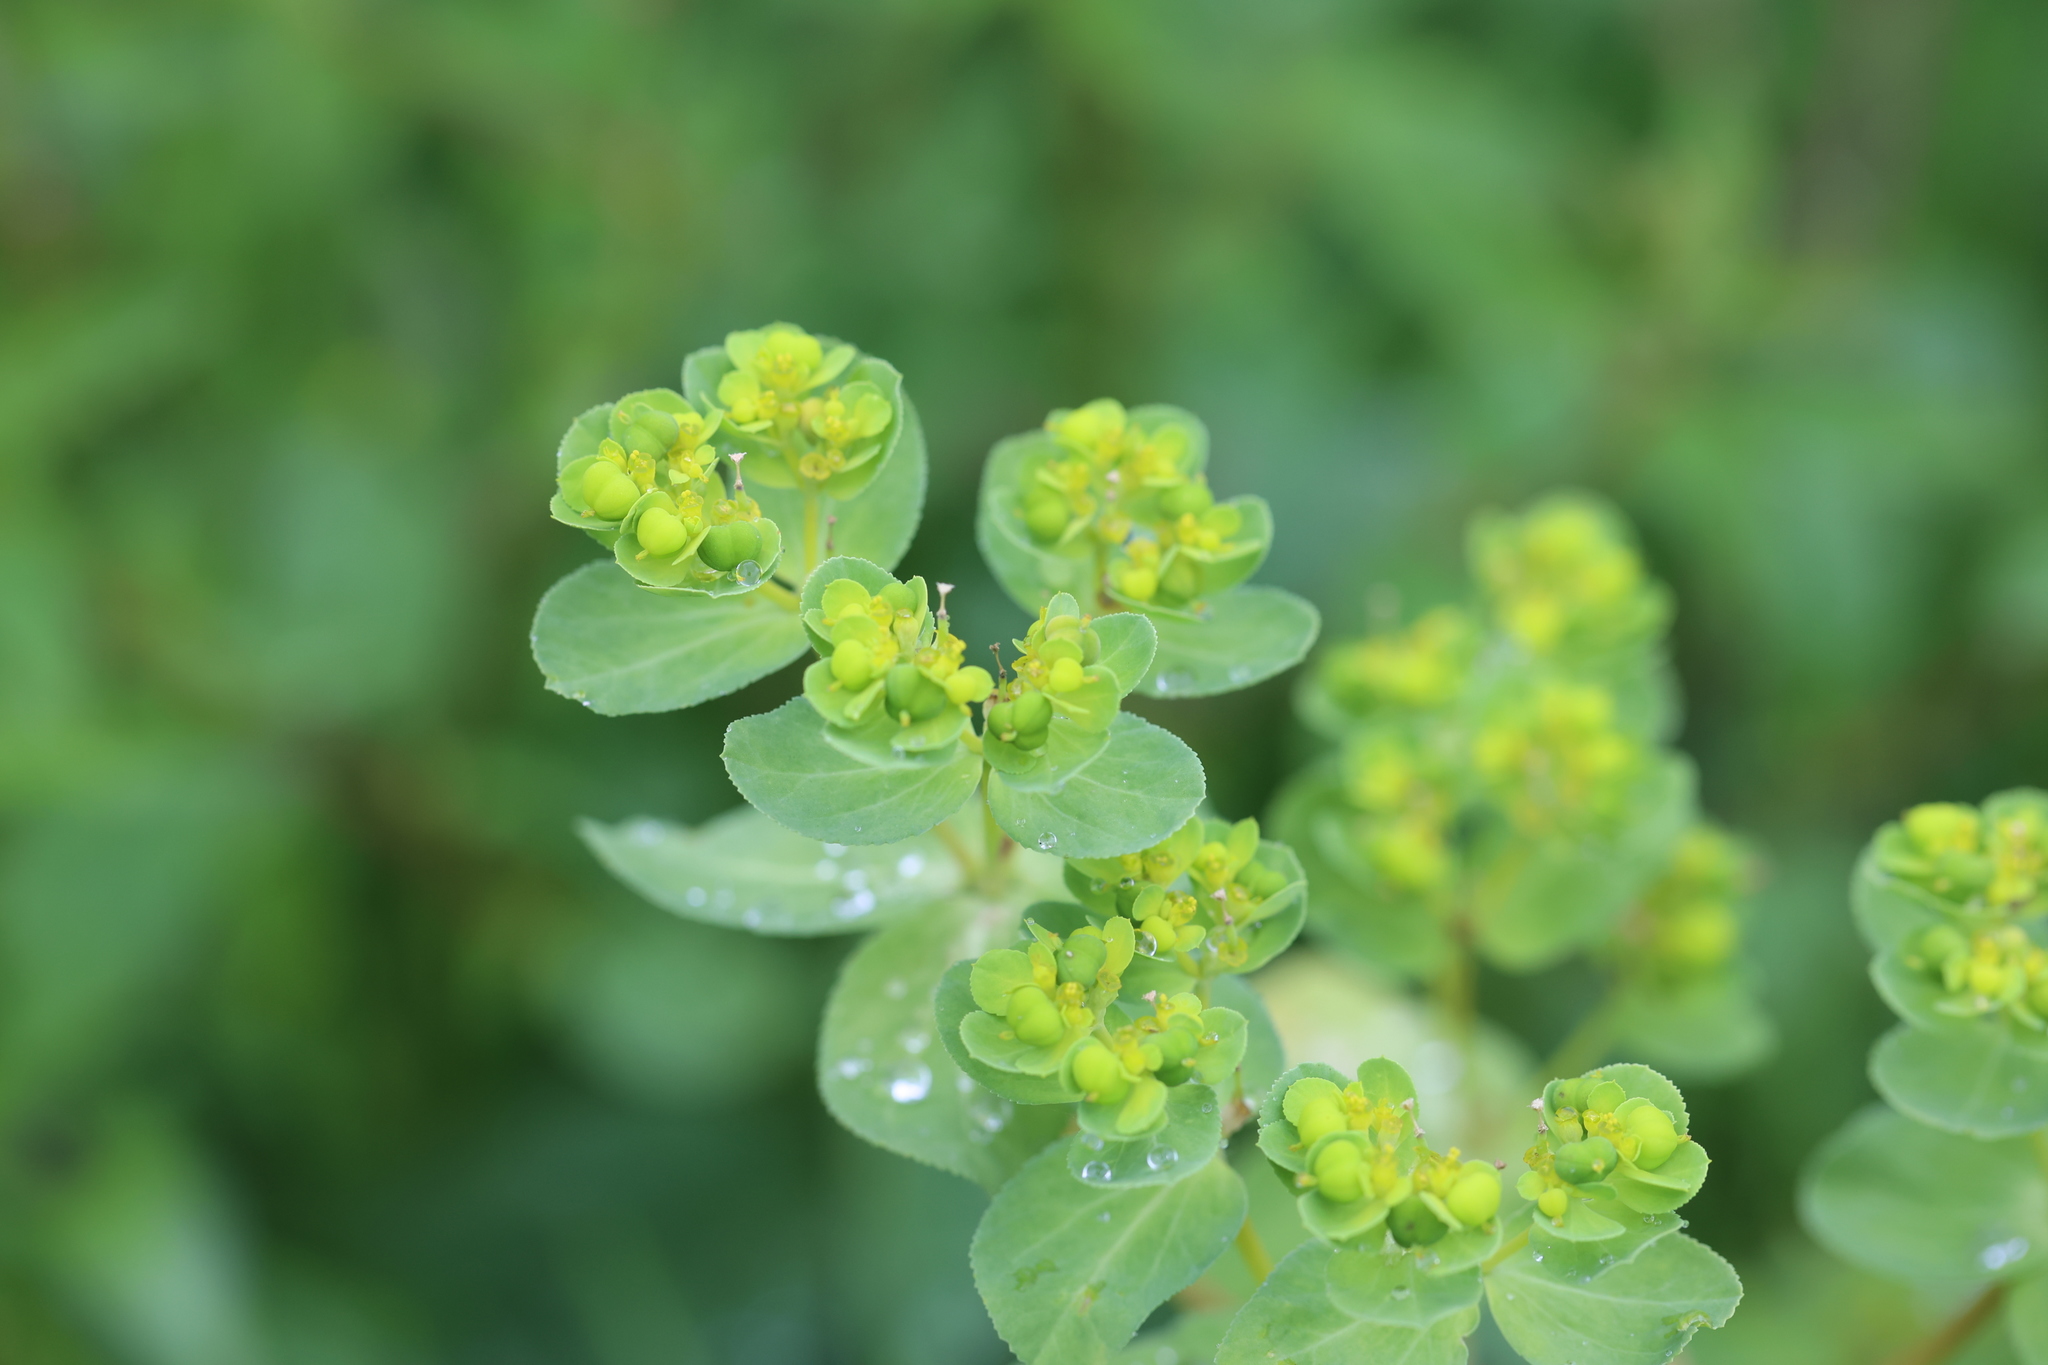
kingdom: Plantae
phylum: Tracheophyta
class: Magnoliopsida
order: Malpighiales
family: Euphorbiaceae
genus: Euphorbia
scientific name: Euphorbia helioscopia
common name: Sun spurge
